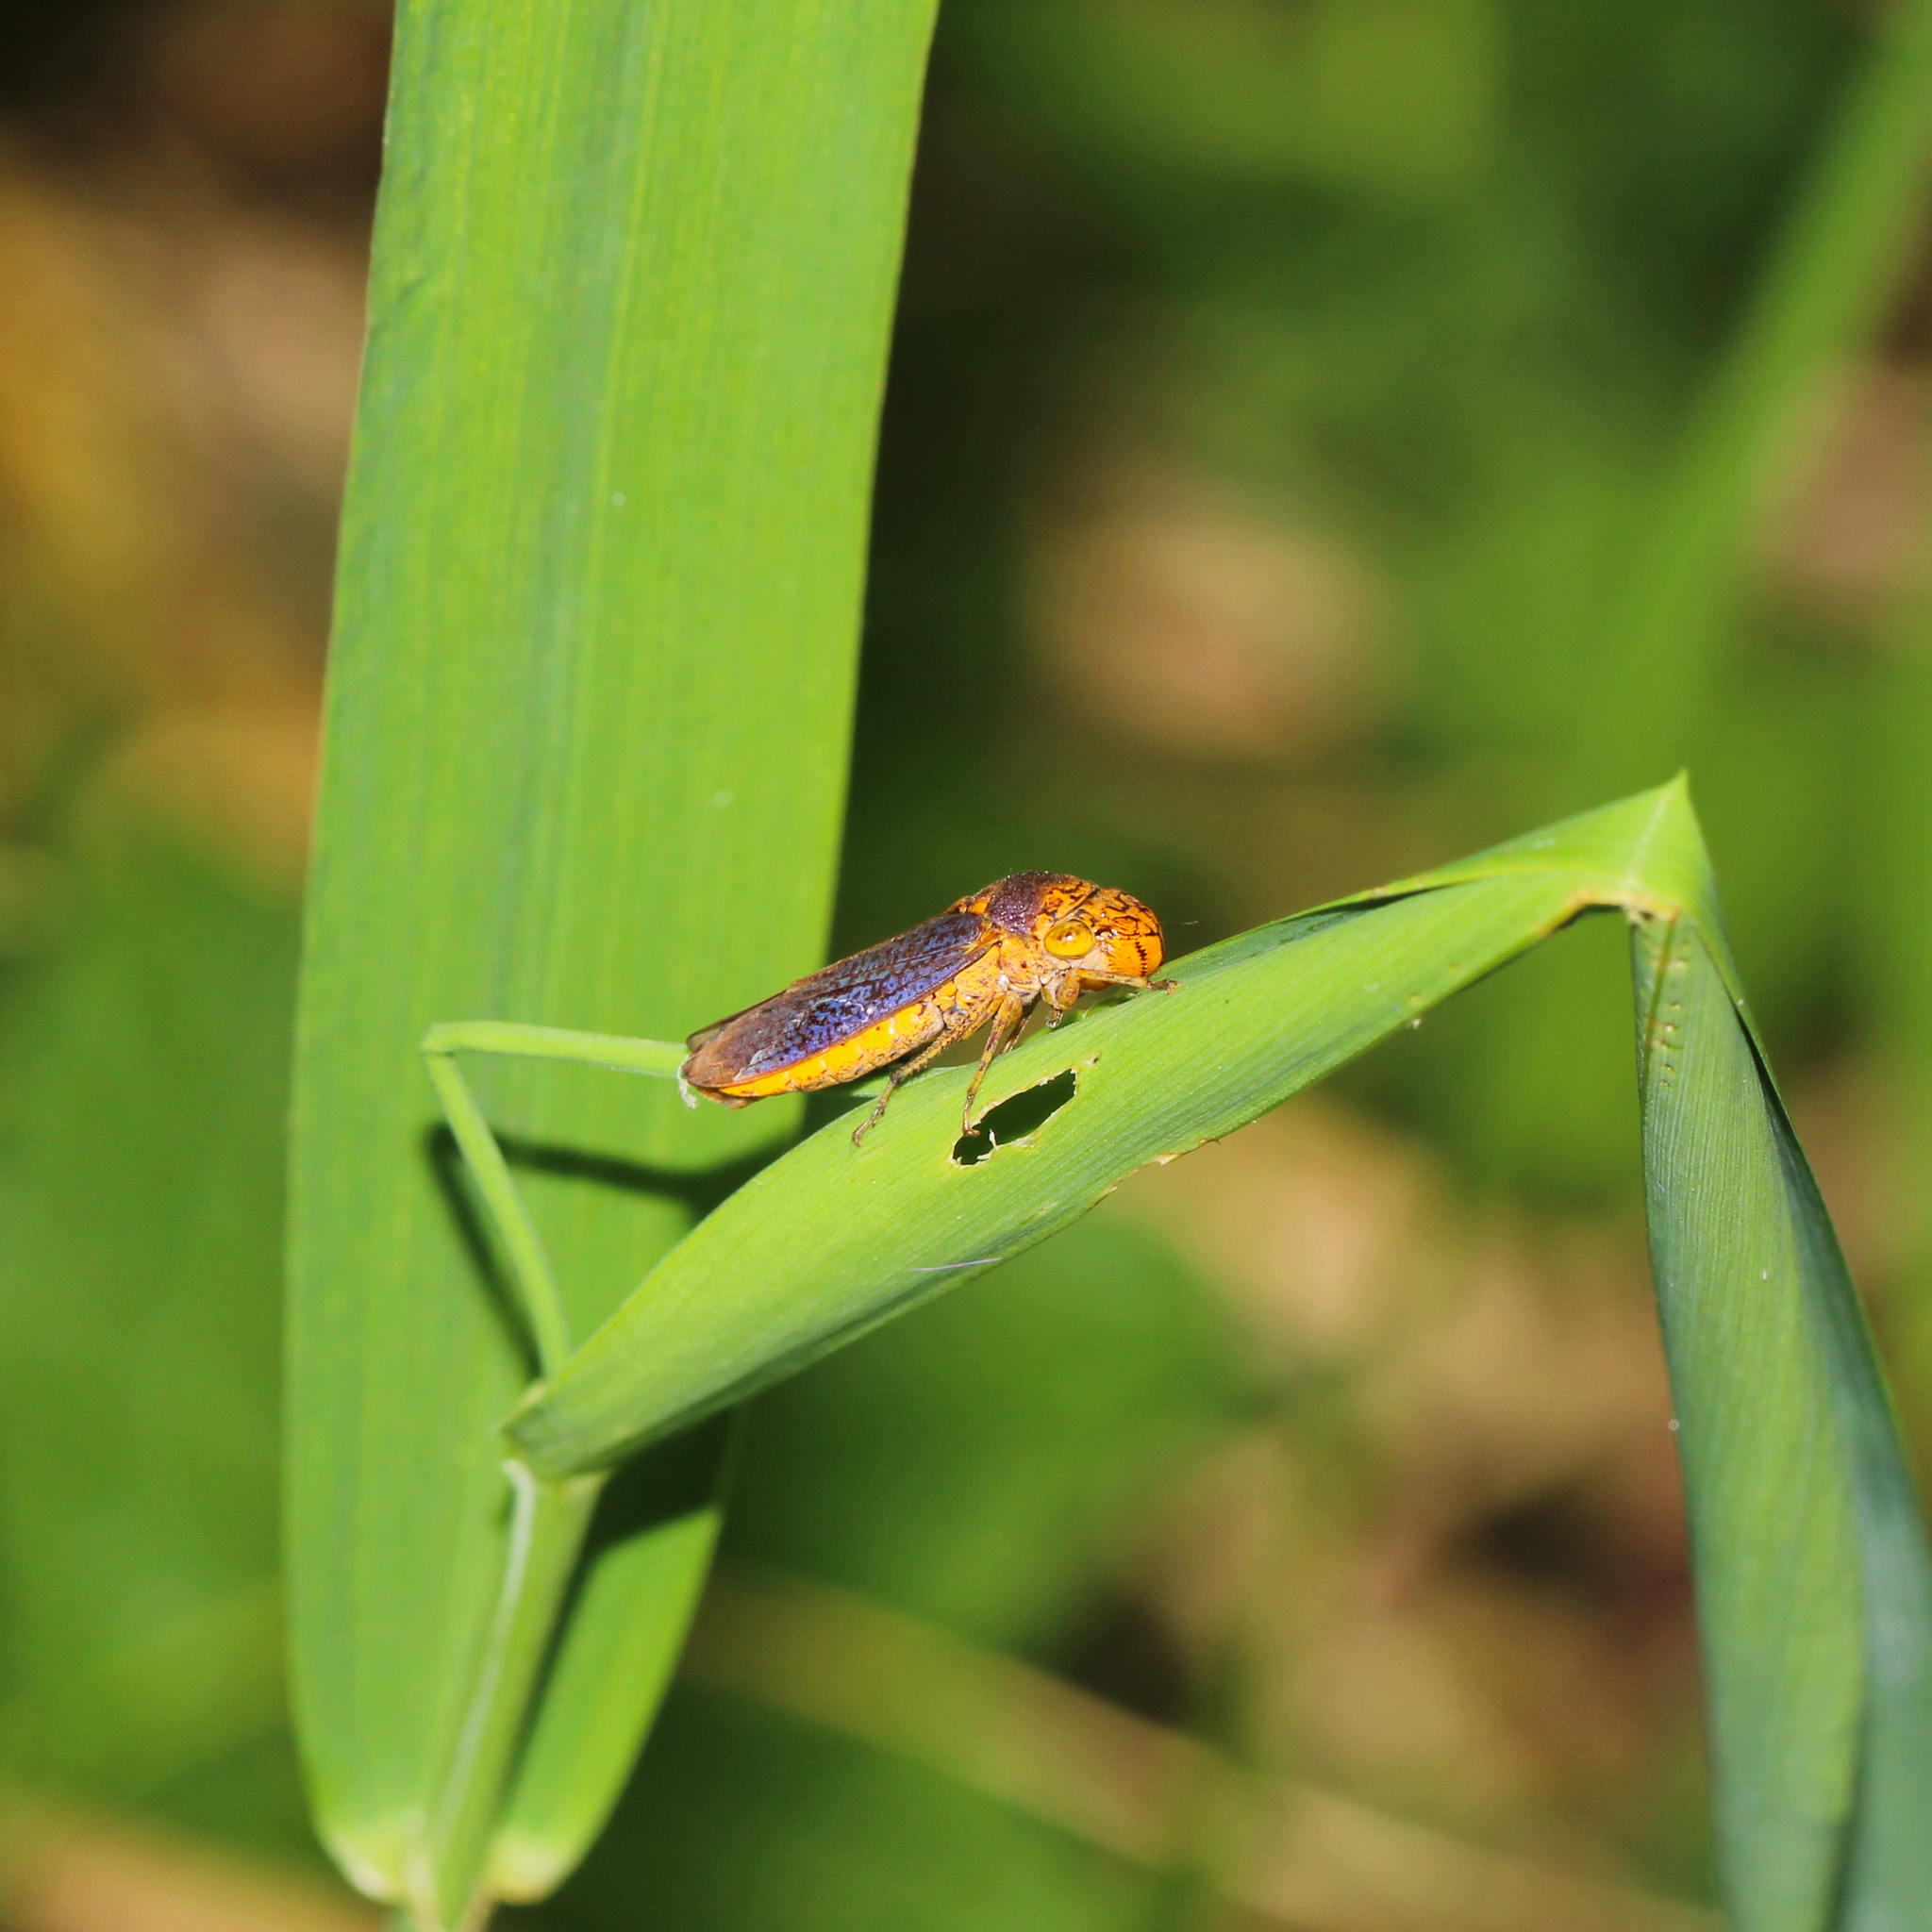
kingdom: Animalia
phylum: Arthropoda
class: Insecta
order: Hemiptera
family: Cicadellidae
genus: Oncometopia
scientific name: Oncometopia orbona
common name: Broad-headed sharpshooter
